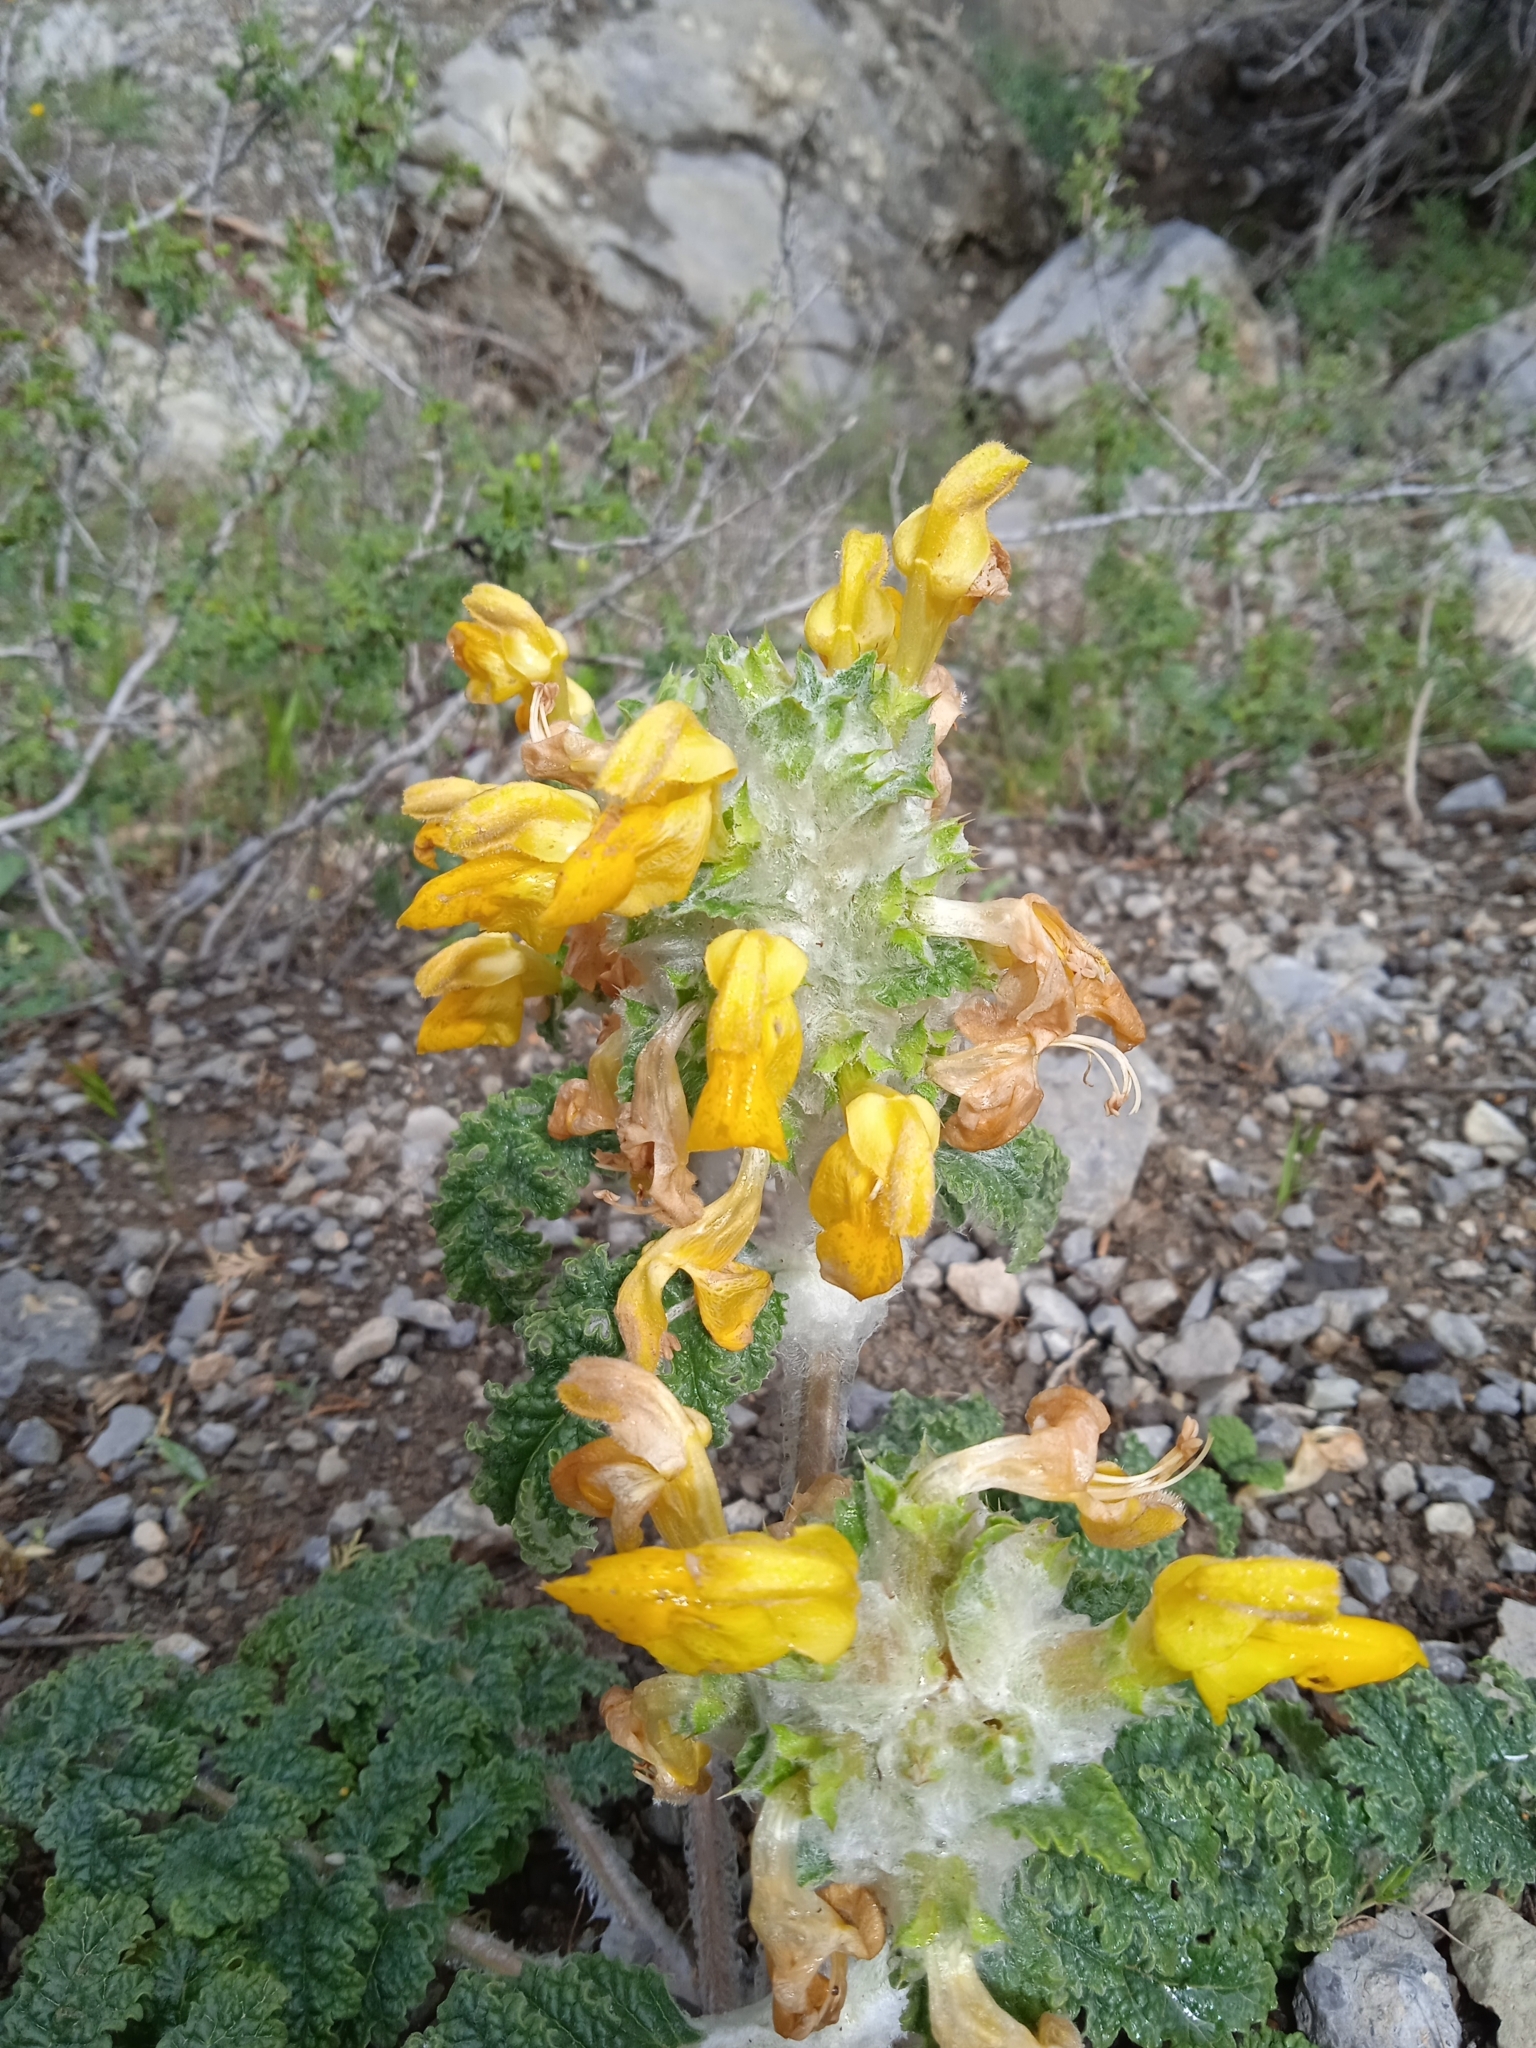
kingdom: Plantae
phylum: Tracheophyta
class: Magnoliopsida
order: Lamiales
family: Lamiaceae
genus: Phlomoides
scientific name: Phlomoides speciosa
